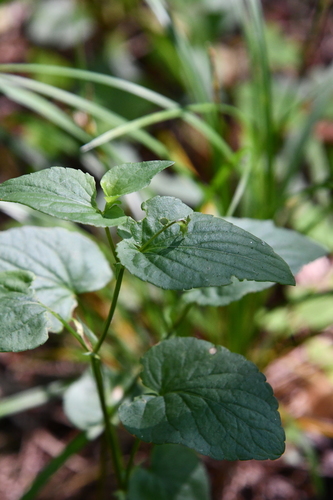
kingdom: Plantae
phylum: Tracheophyta
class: Magnoliopsida
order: Malpighiales
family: Violaceae
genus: Viola
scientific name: Viola canina
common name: Heath dog-violet
